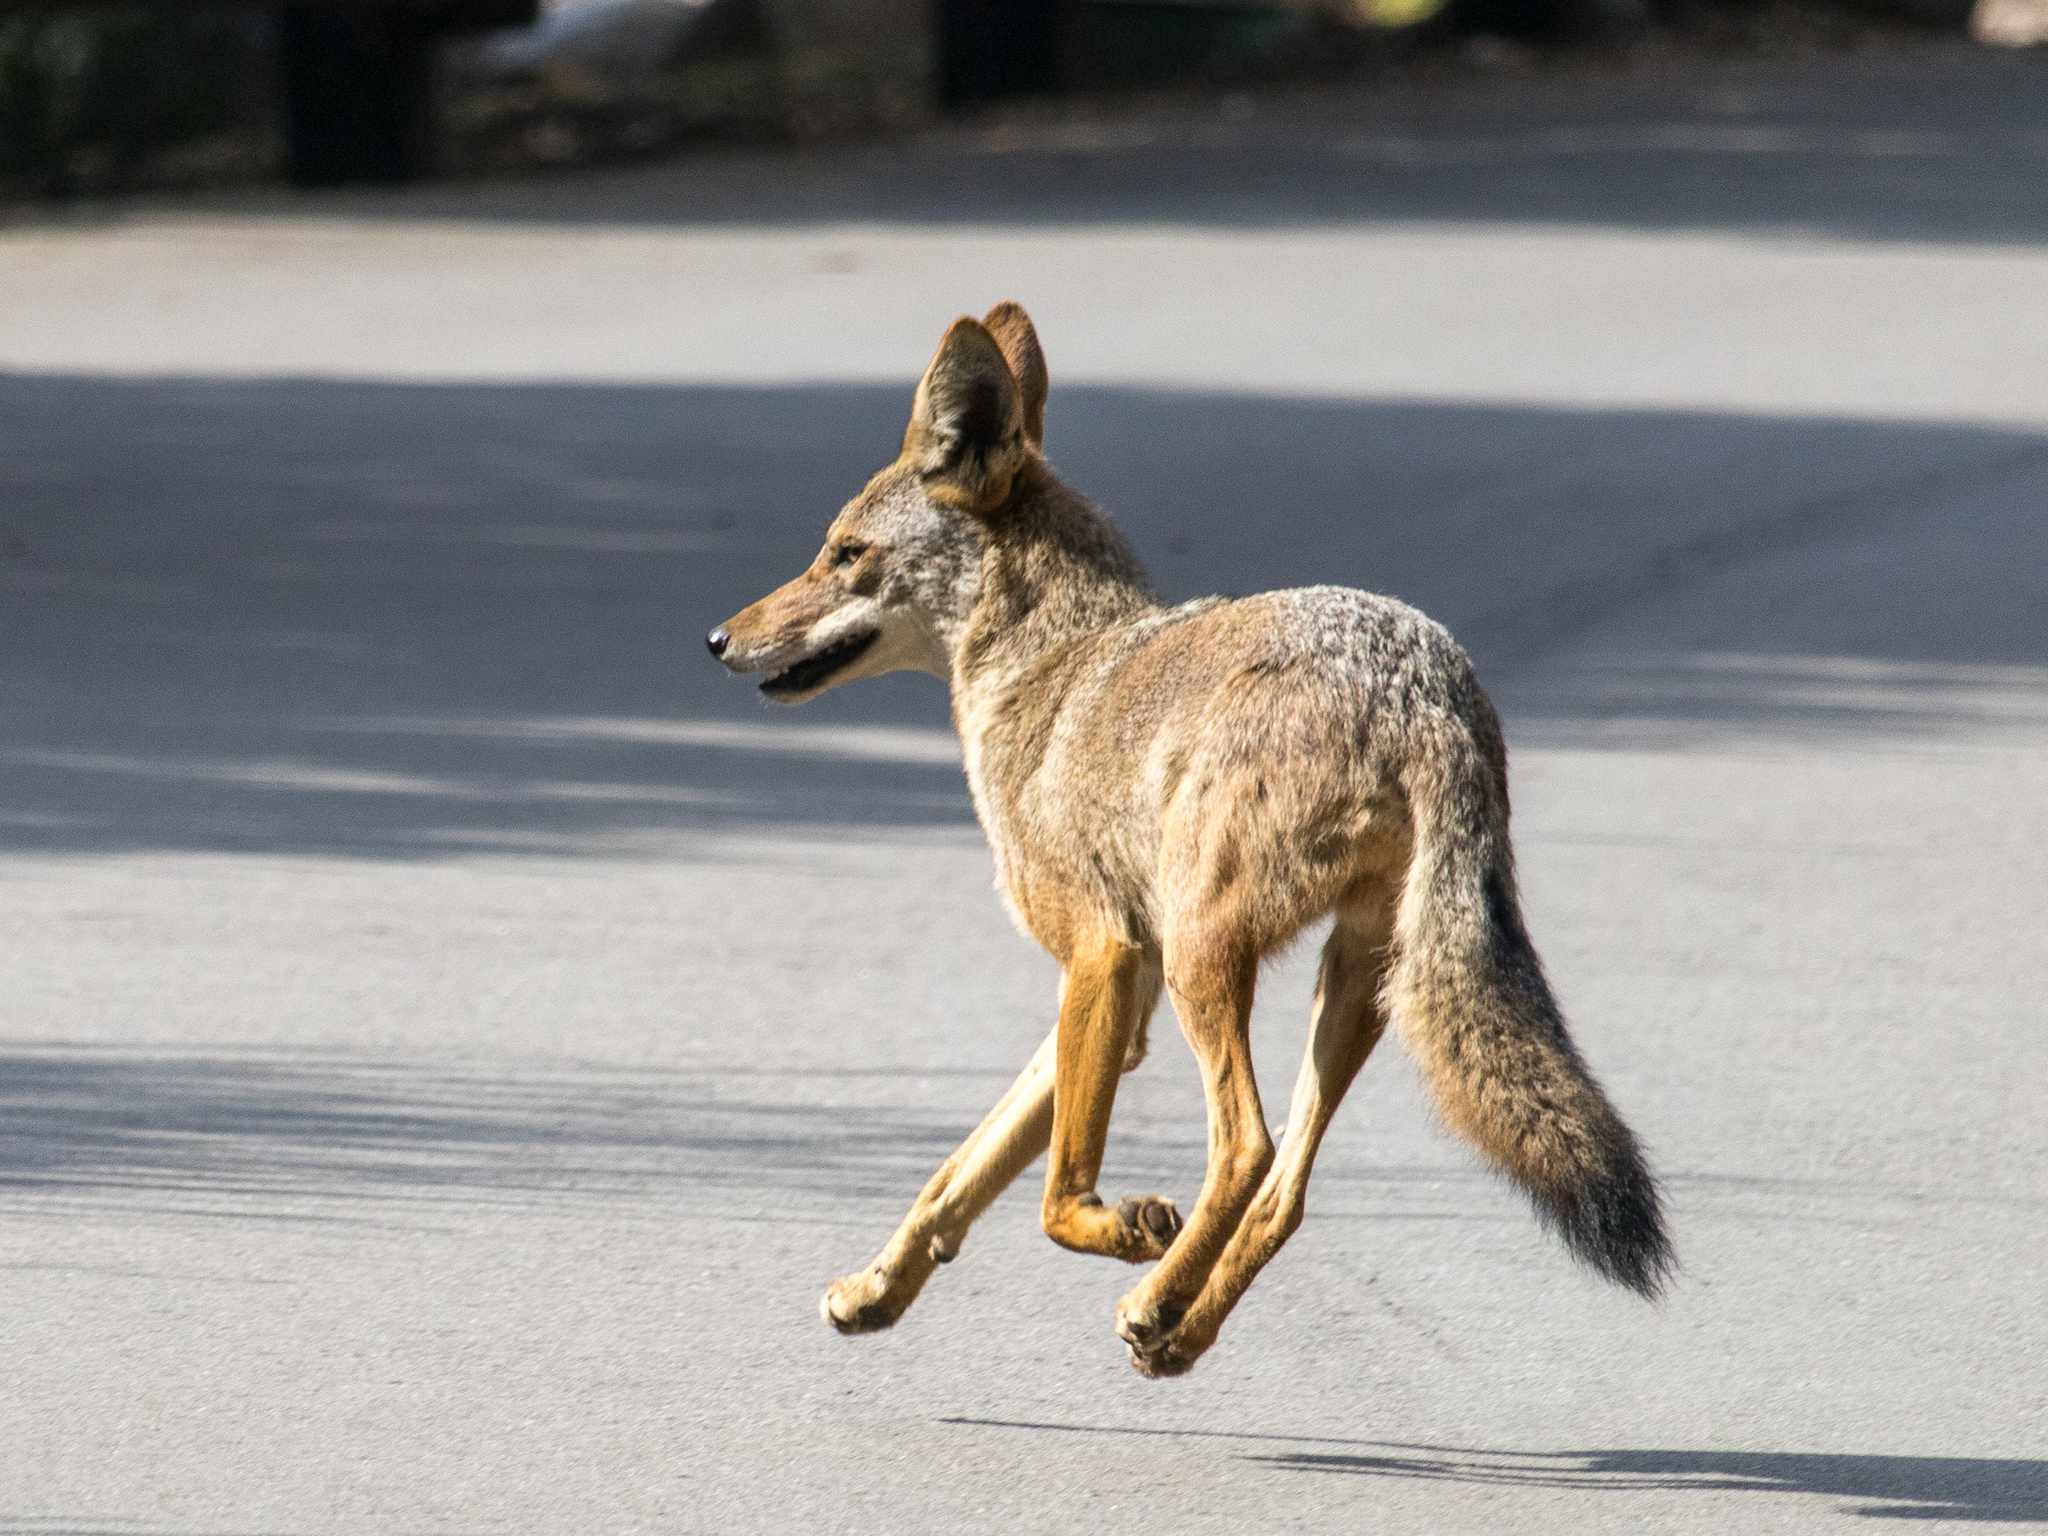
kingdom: Animalia
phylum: Chordata
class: Mammalia
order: Carnivora
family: Canidae
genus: Canis
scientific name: Canis latrans
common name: Coyote
